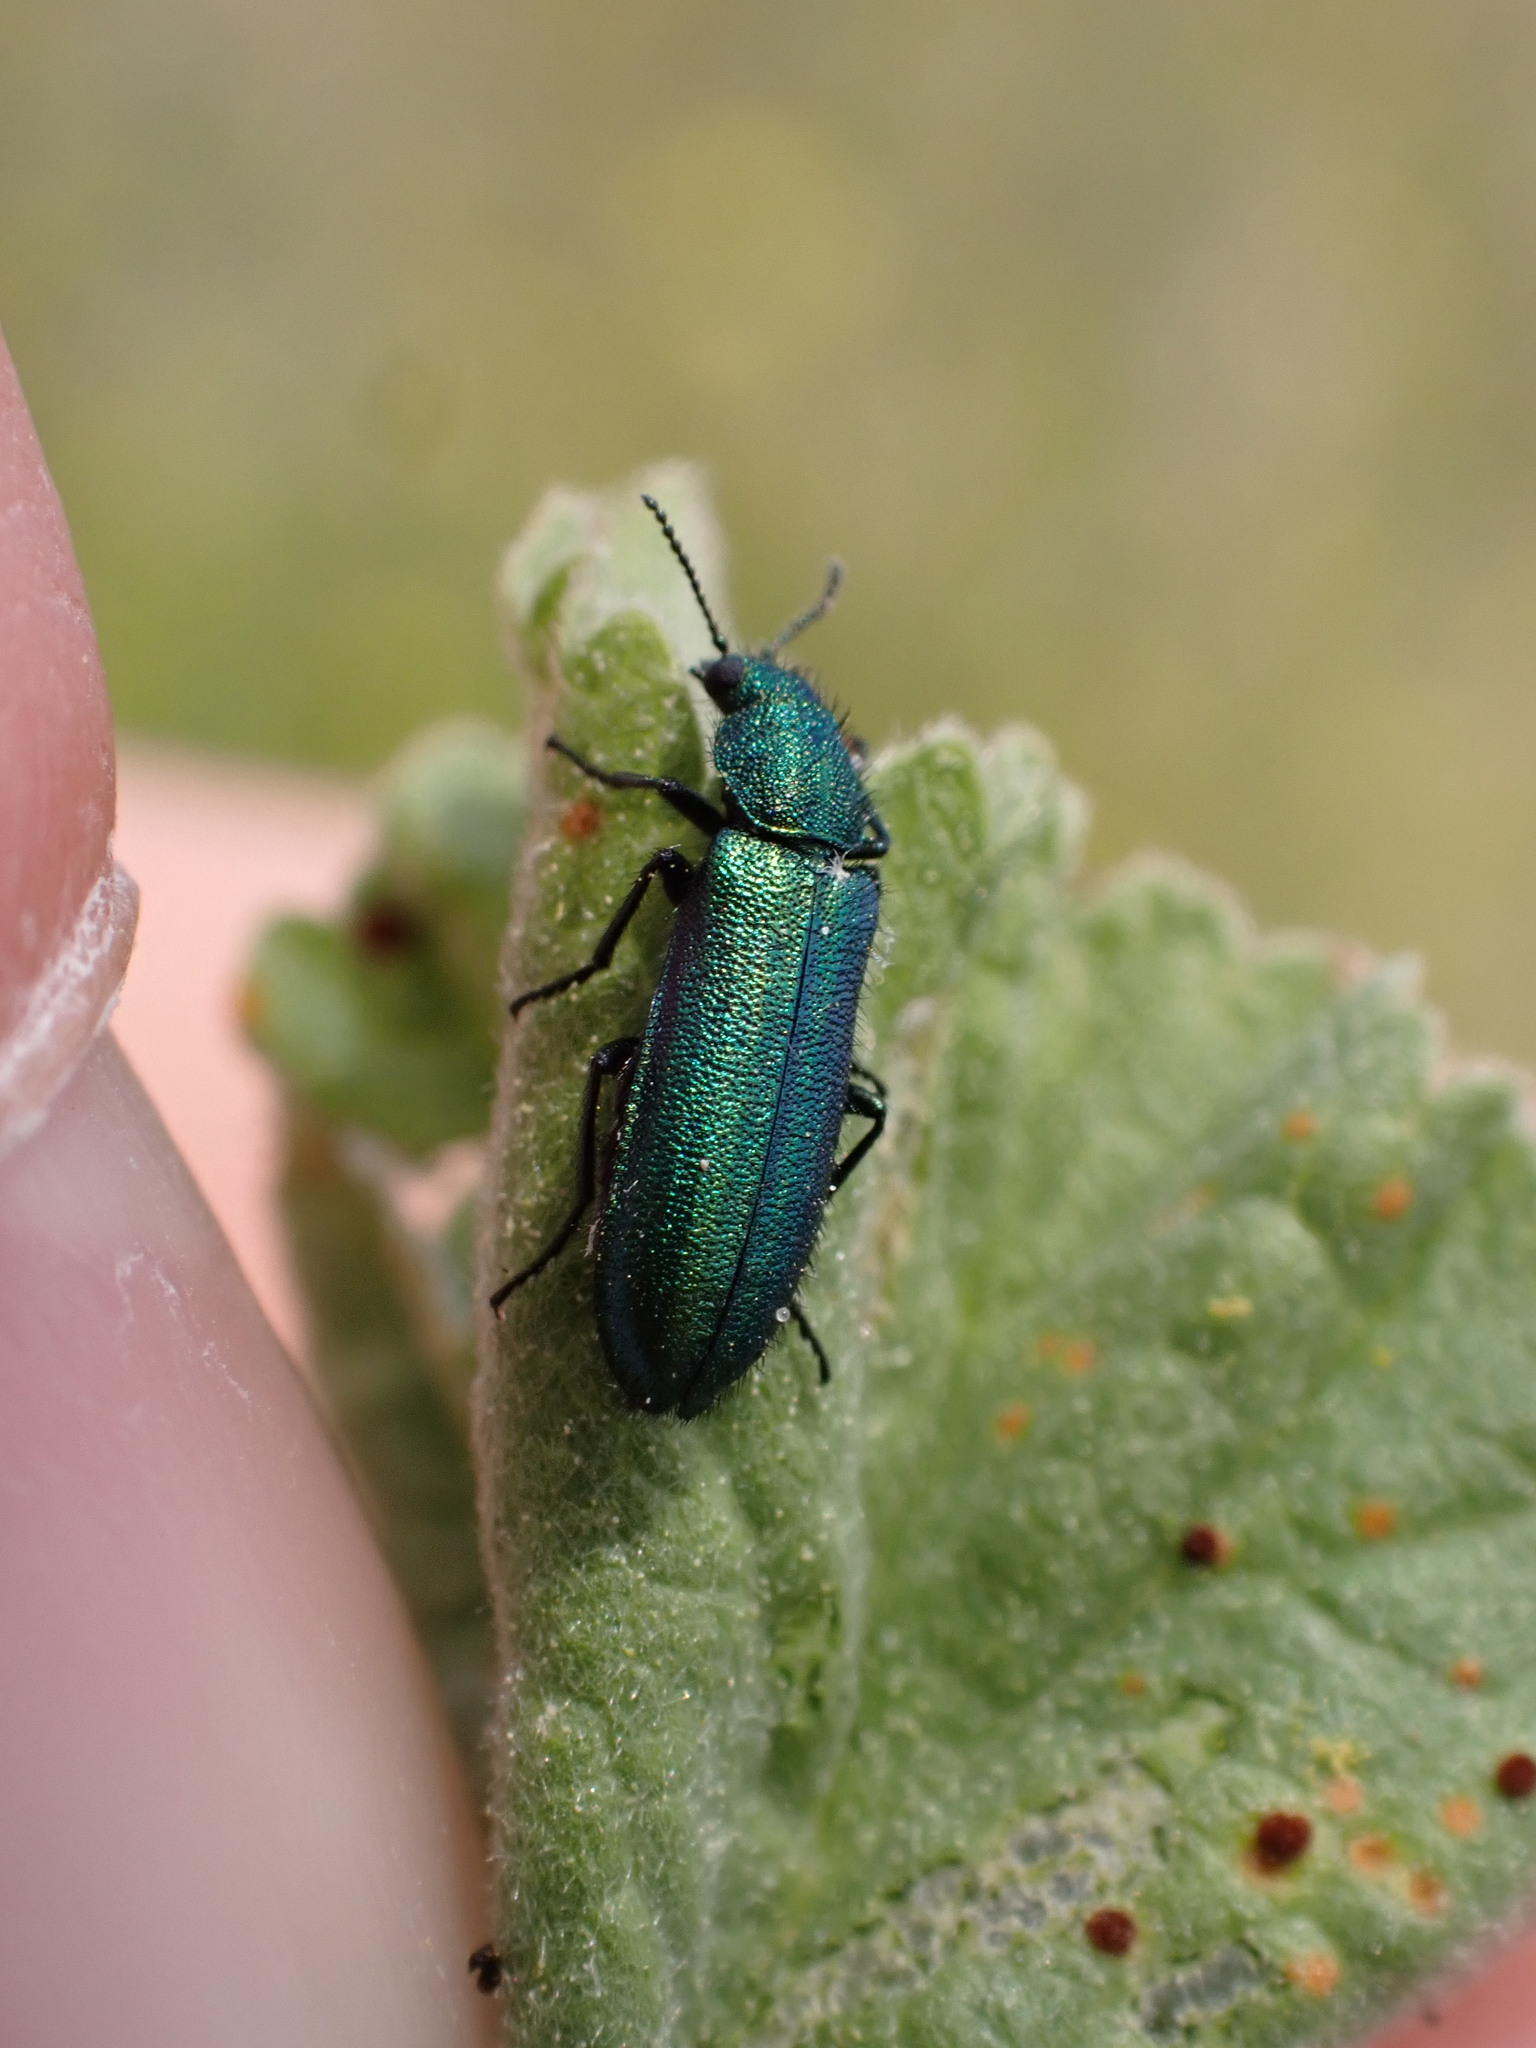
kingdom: Animalia
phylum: Arthropoda
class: Insecta
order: Coleoptera
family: Dasytidae
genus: Psilothrix
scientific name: Psilothrix viridicoerulea
